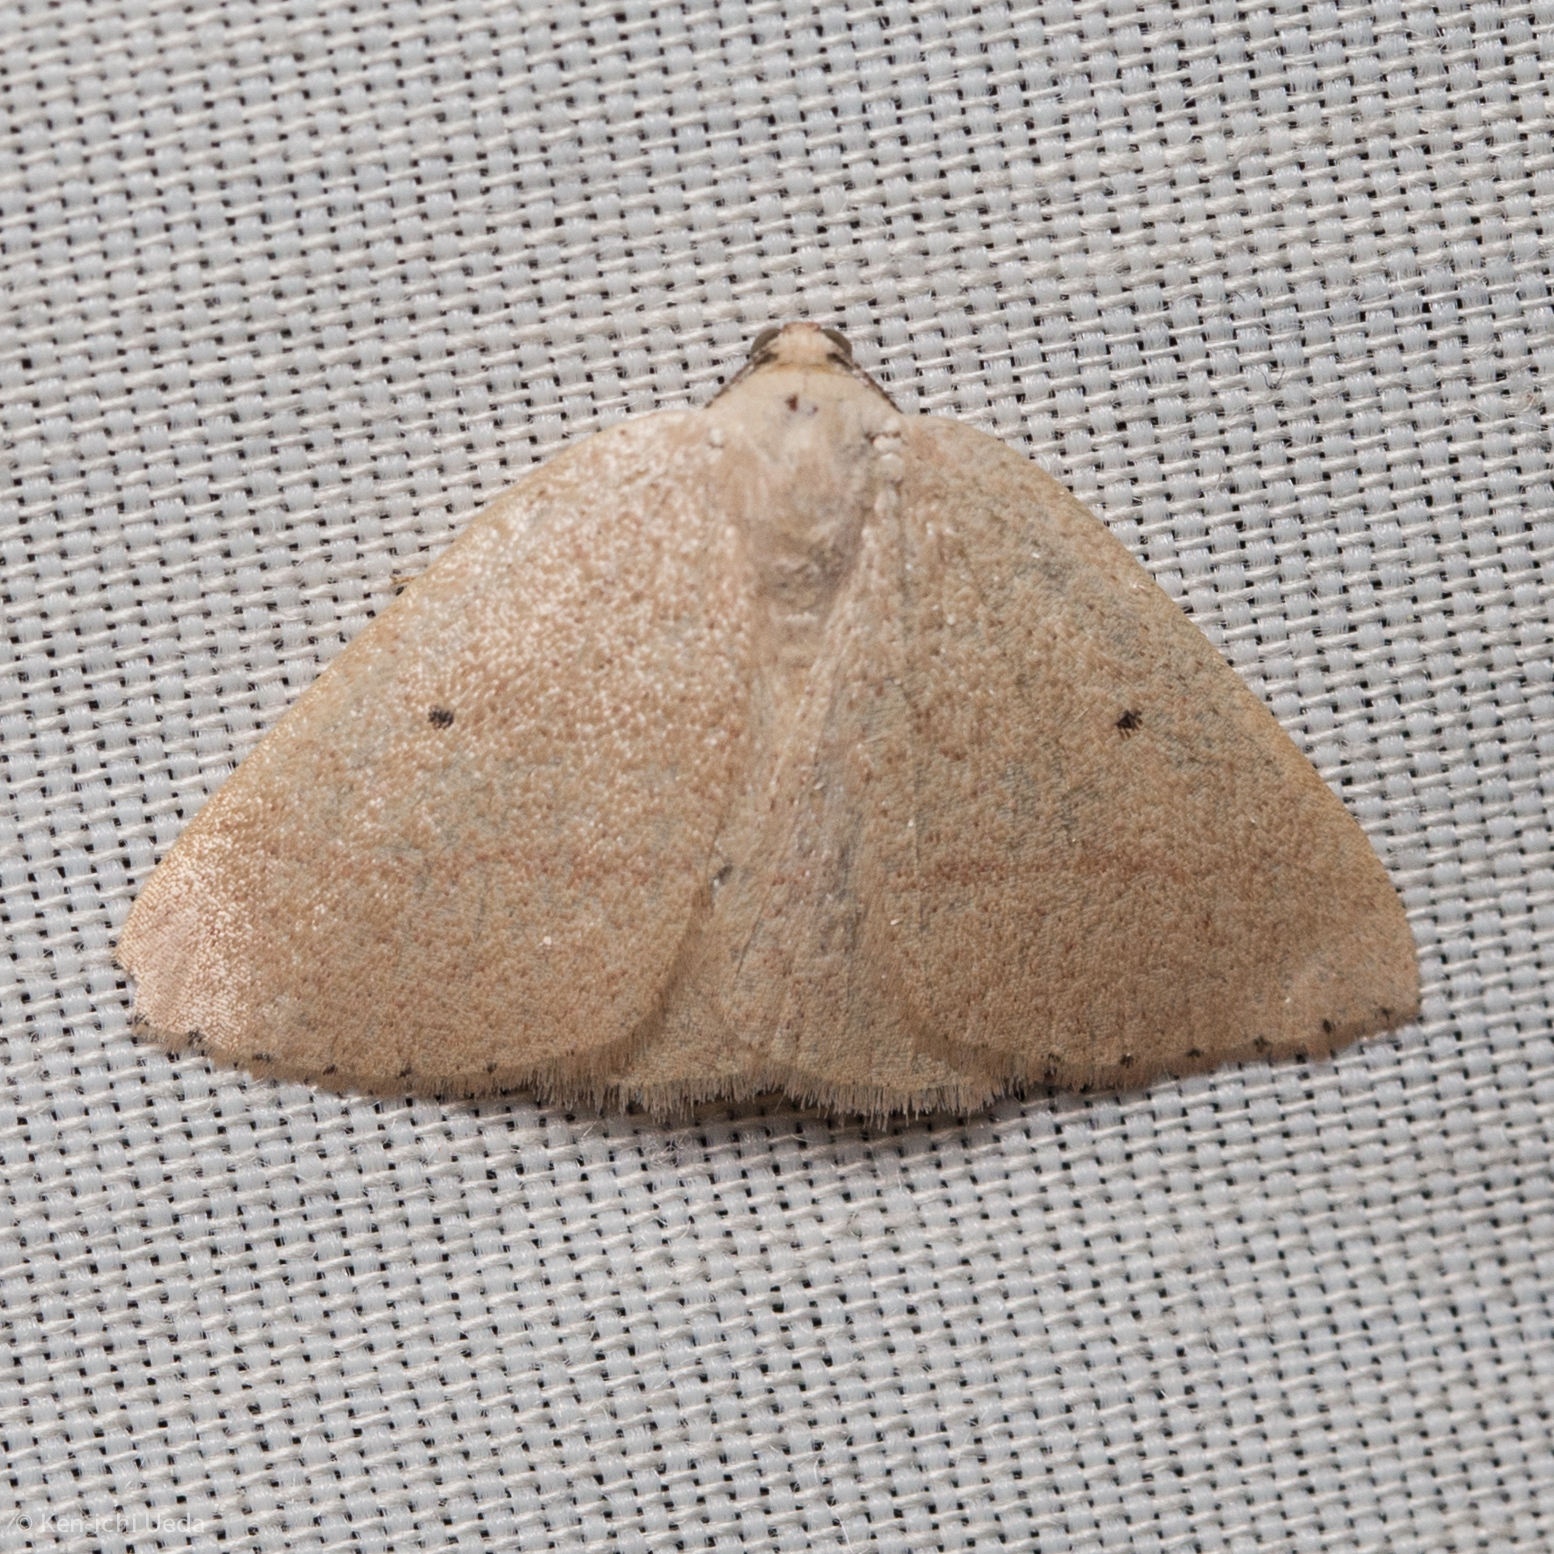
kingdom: Animalia
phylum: Arthropoda
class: Insecta
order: Lepidoptera
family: Geometridae
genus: Eudrepanulatrix
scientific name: Eudrepanulatrix rectifascia
